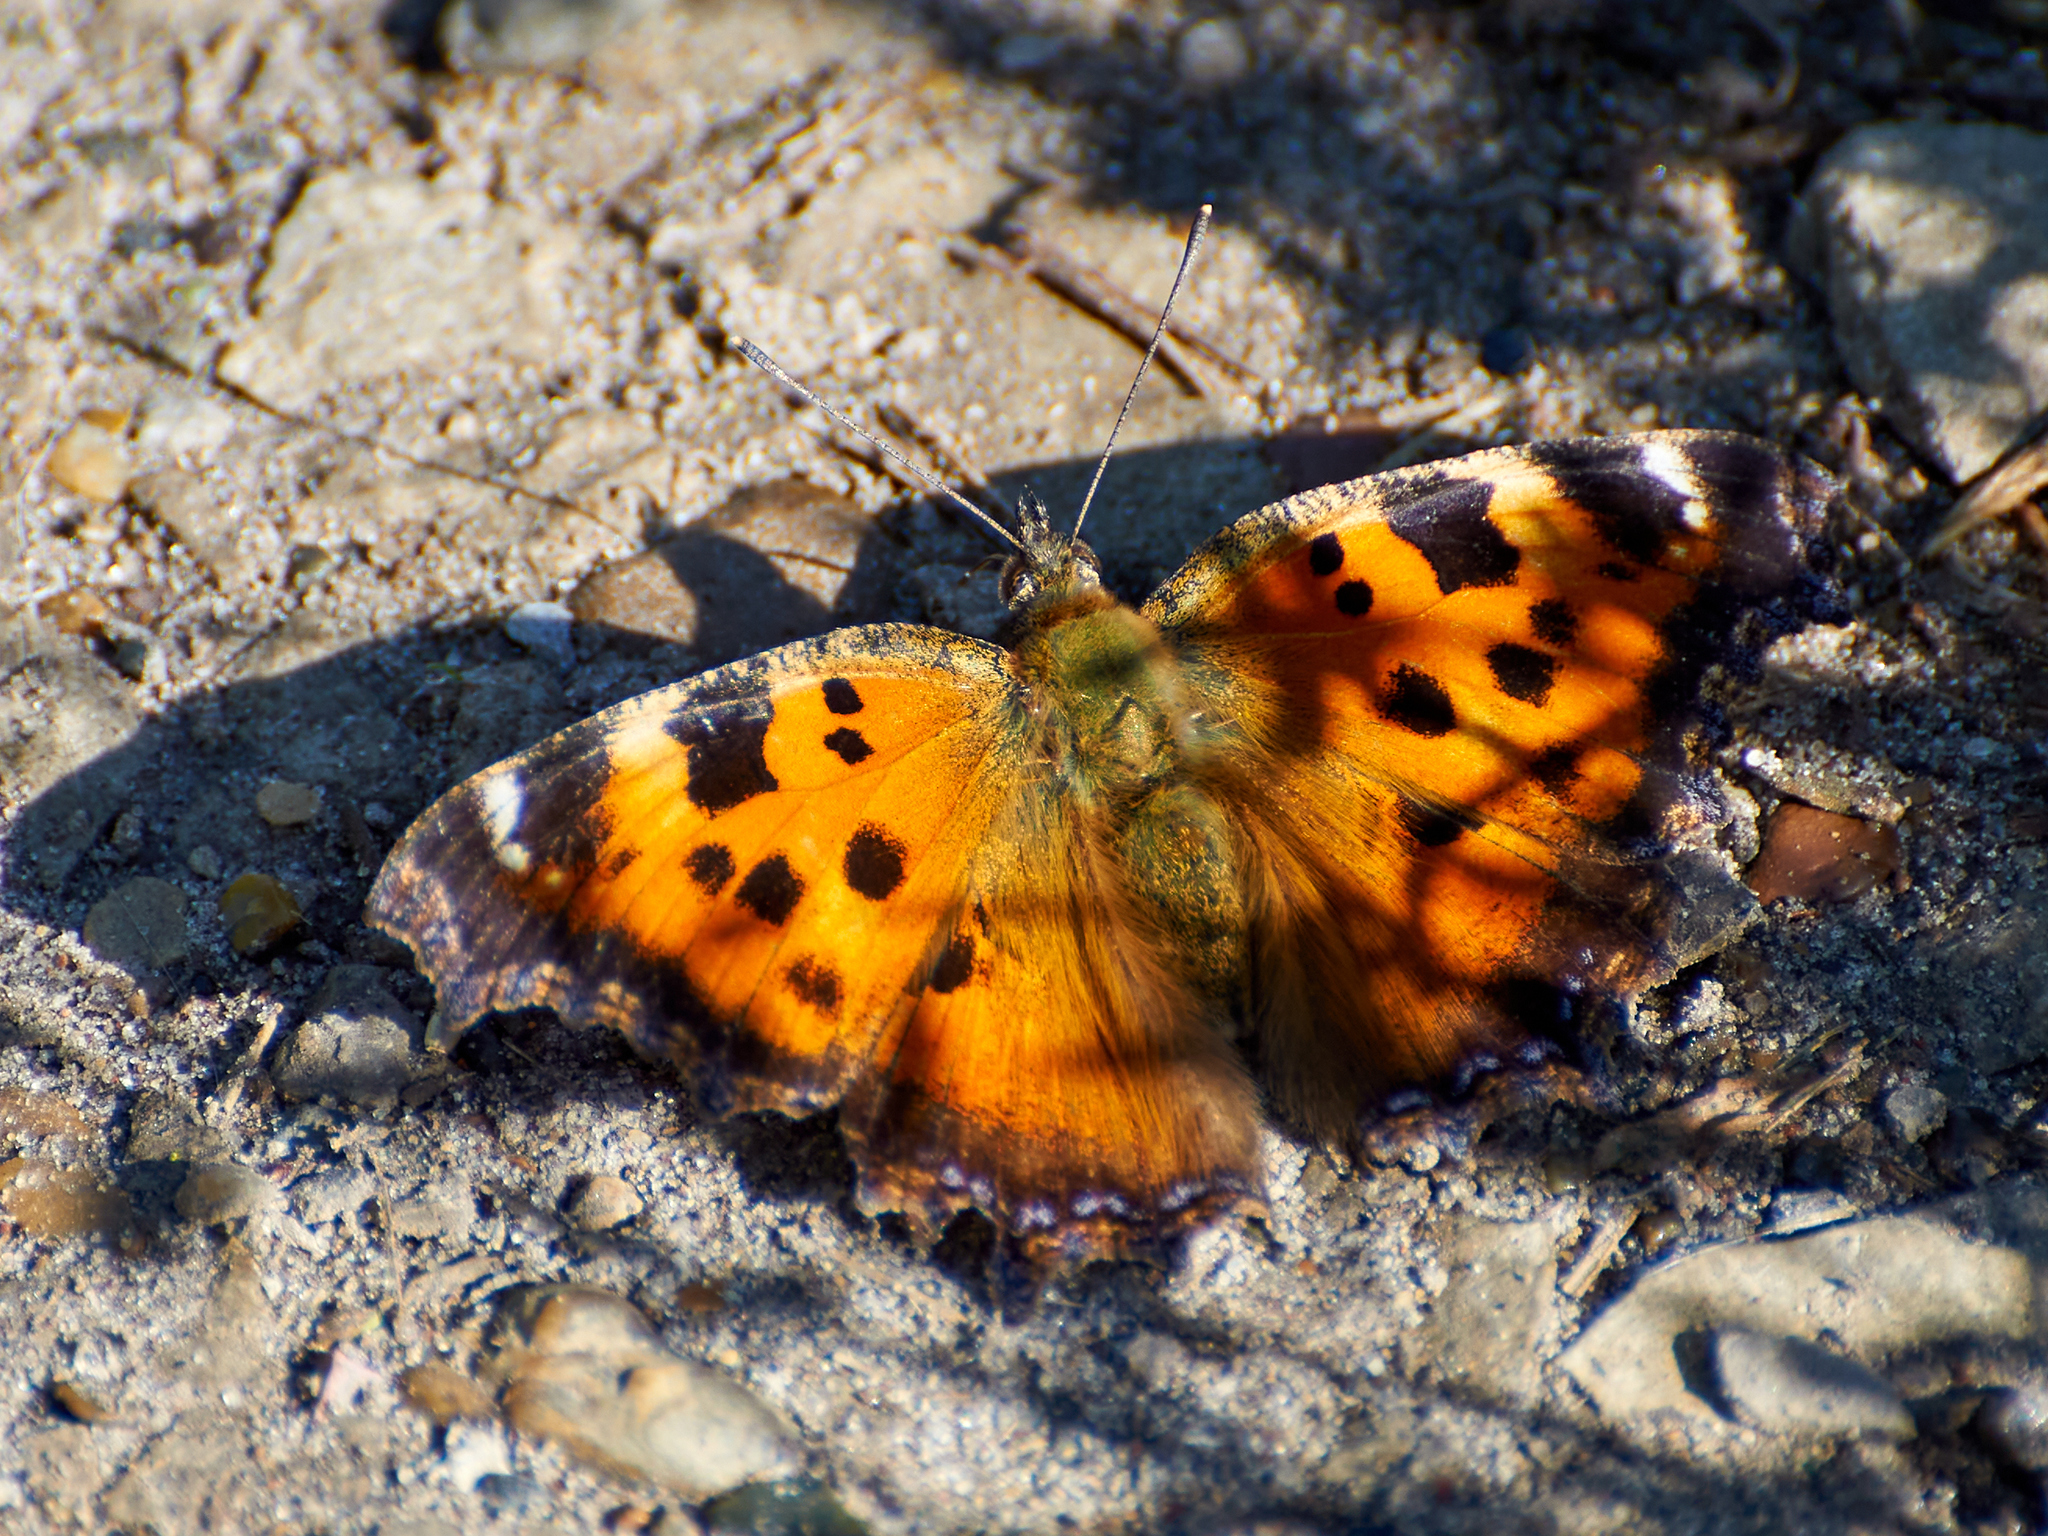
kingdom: Animalia
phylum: Arthropoda
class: Insecta
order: Lepidoptera
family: Nymphalidae
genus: Nymphalis
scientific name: Nymphalis xanthomelas
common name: Scarce tortoiseshell
